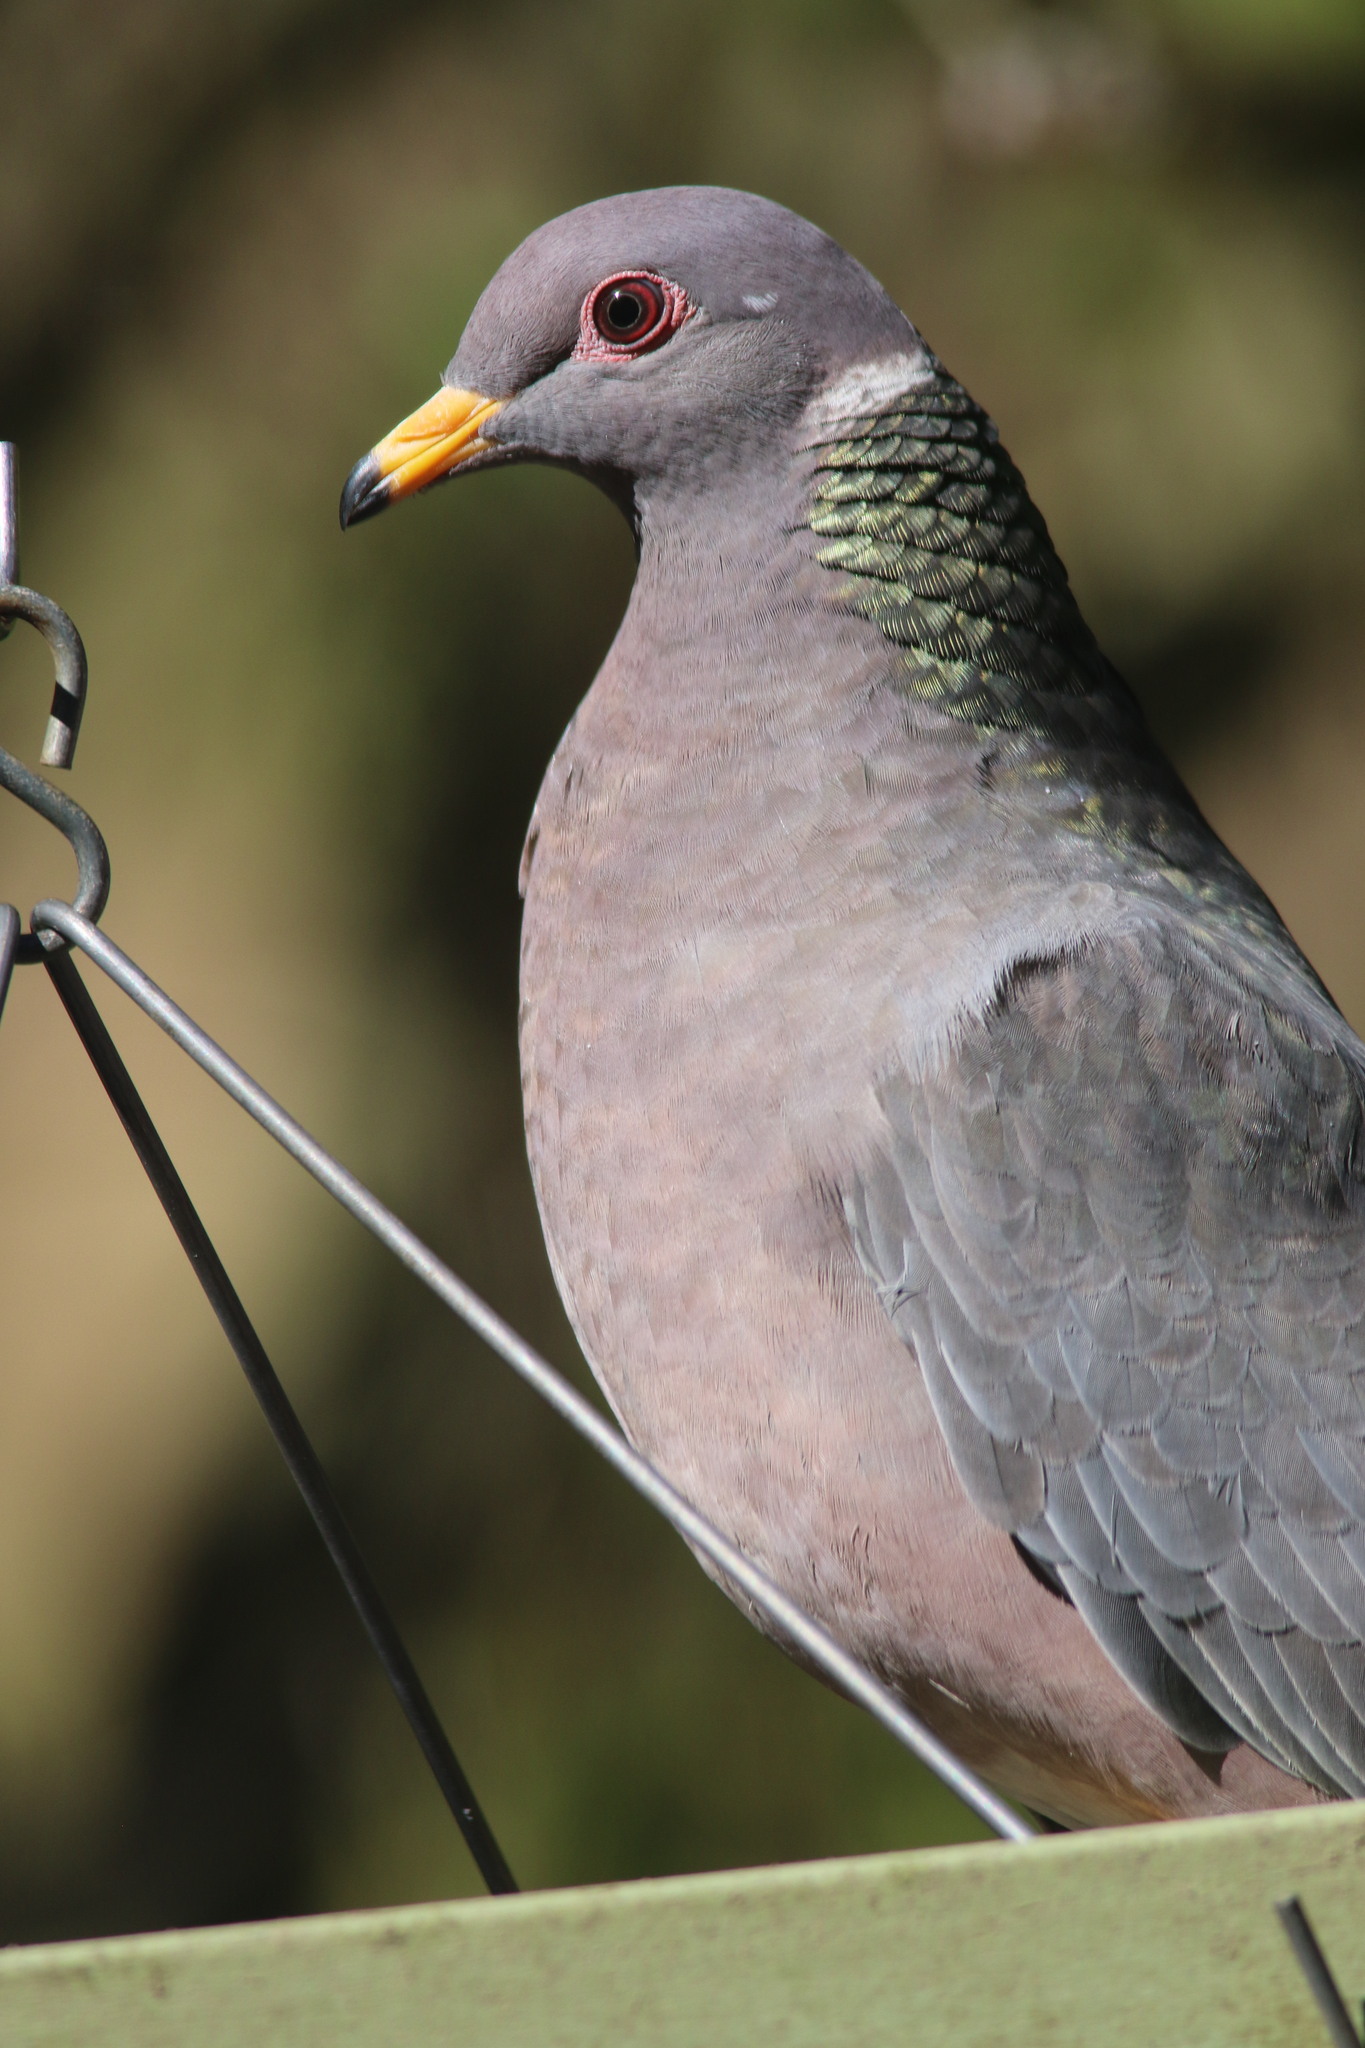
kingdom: Animalia
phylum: Chordata
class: Aves
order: Columbiformes
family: Columbidae
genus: Patagioenas
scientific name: Patagioenas fasciata
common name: Band-tailed pigeon
